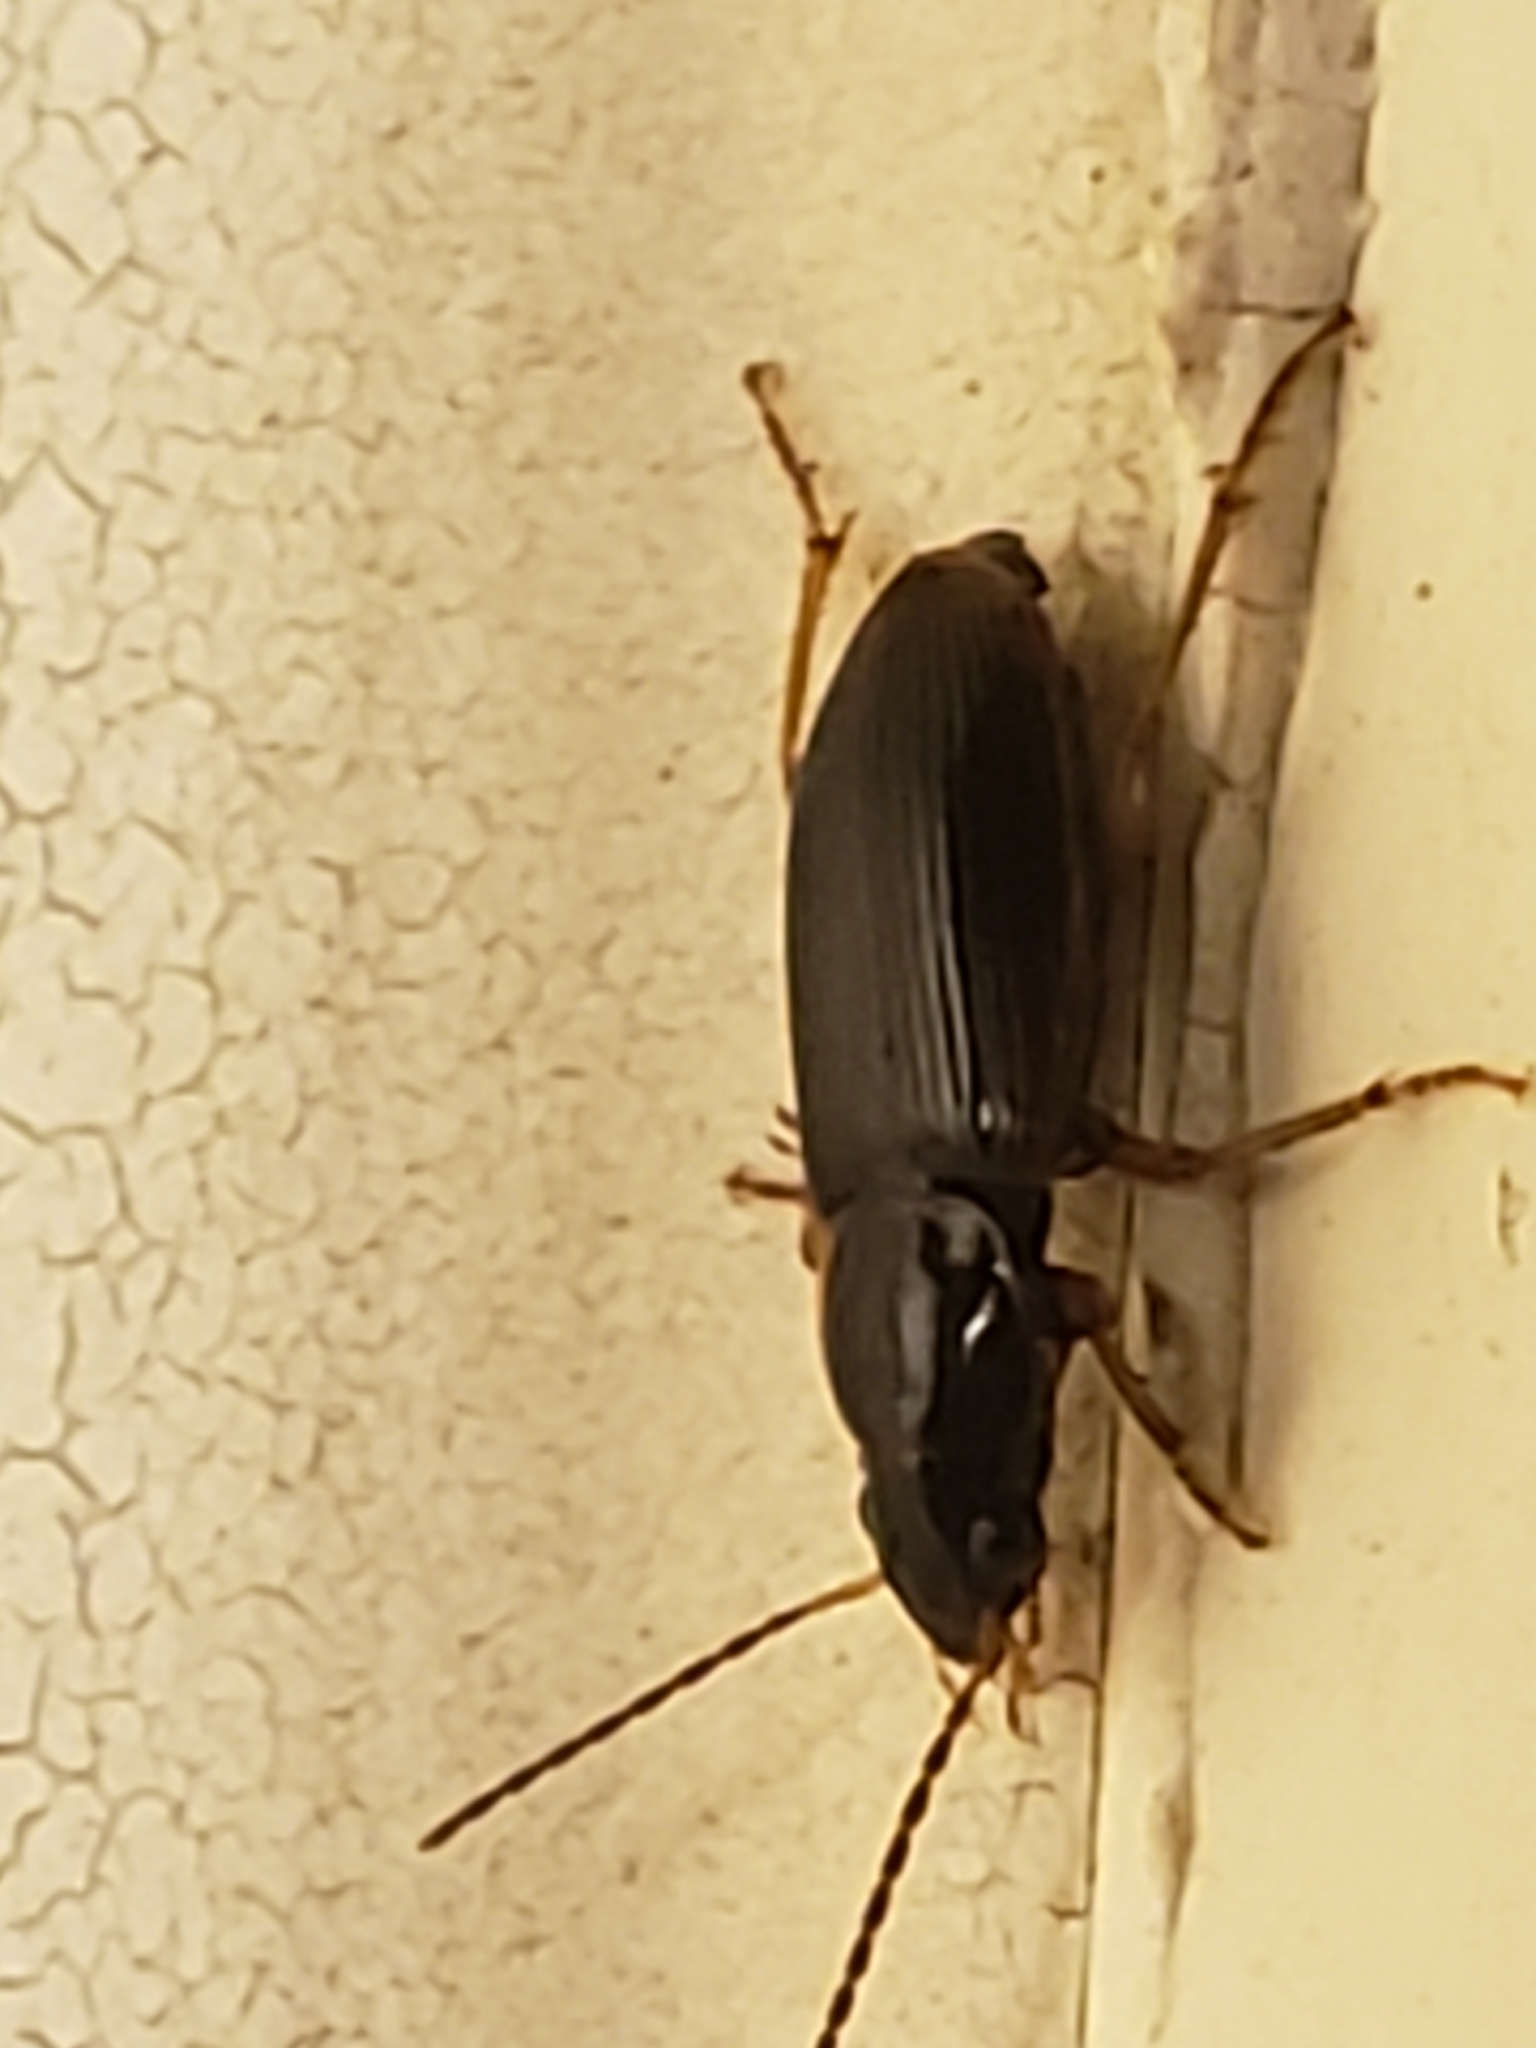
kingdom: Animalia
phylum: Arthropoda
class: Insecta
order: Coleoptera
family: Carabidae
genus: Stenolophus
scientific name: Stenolophus ochropezus
